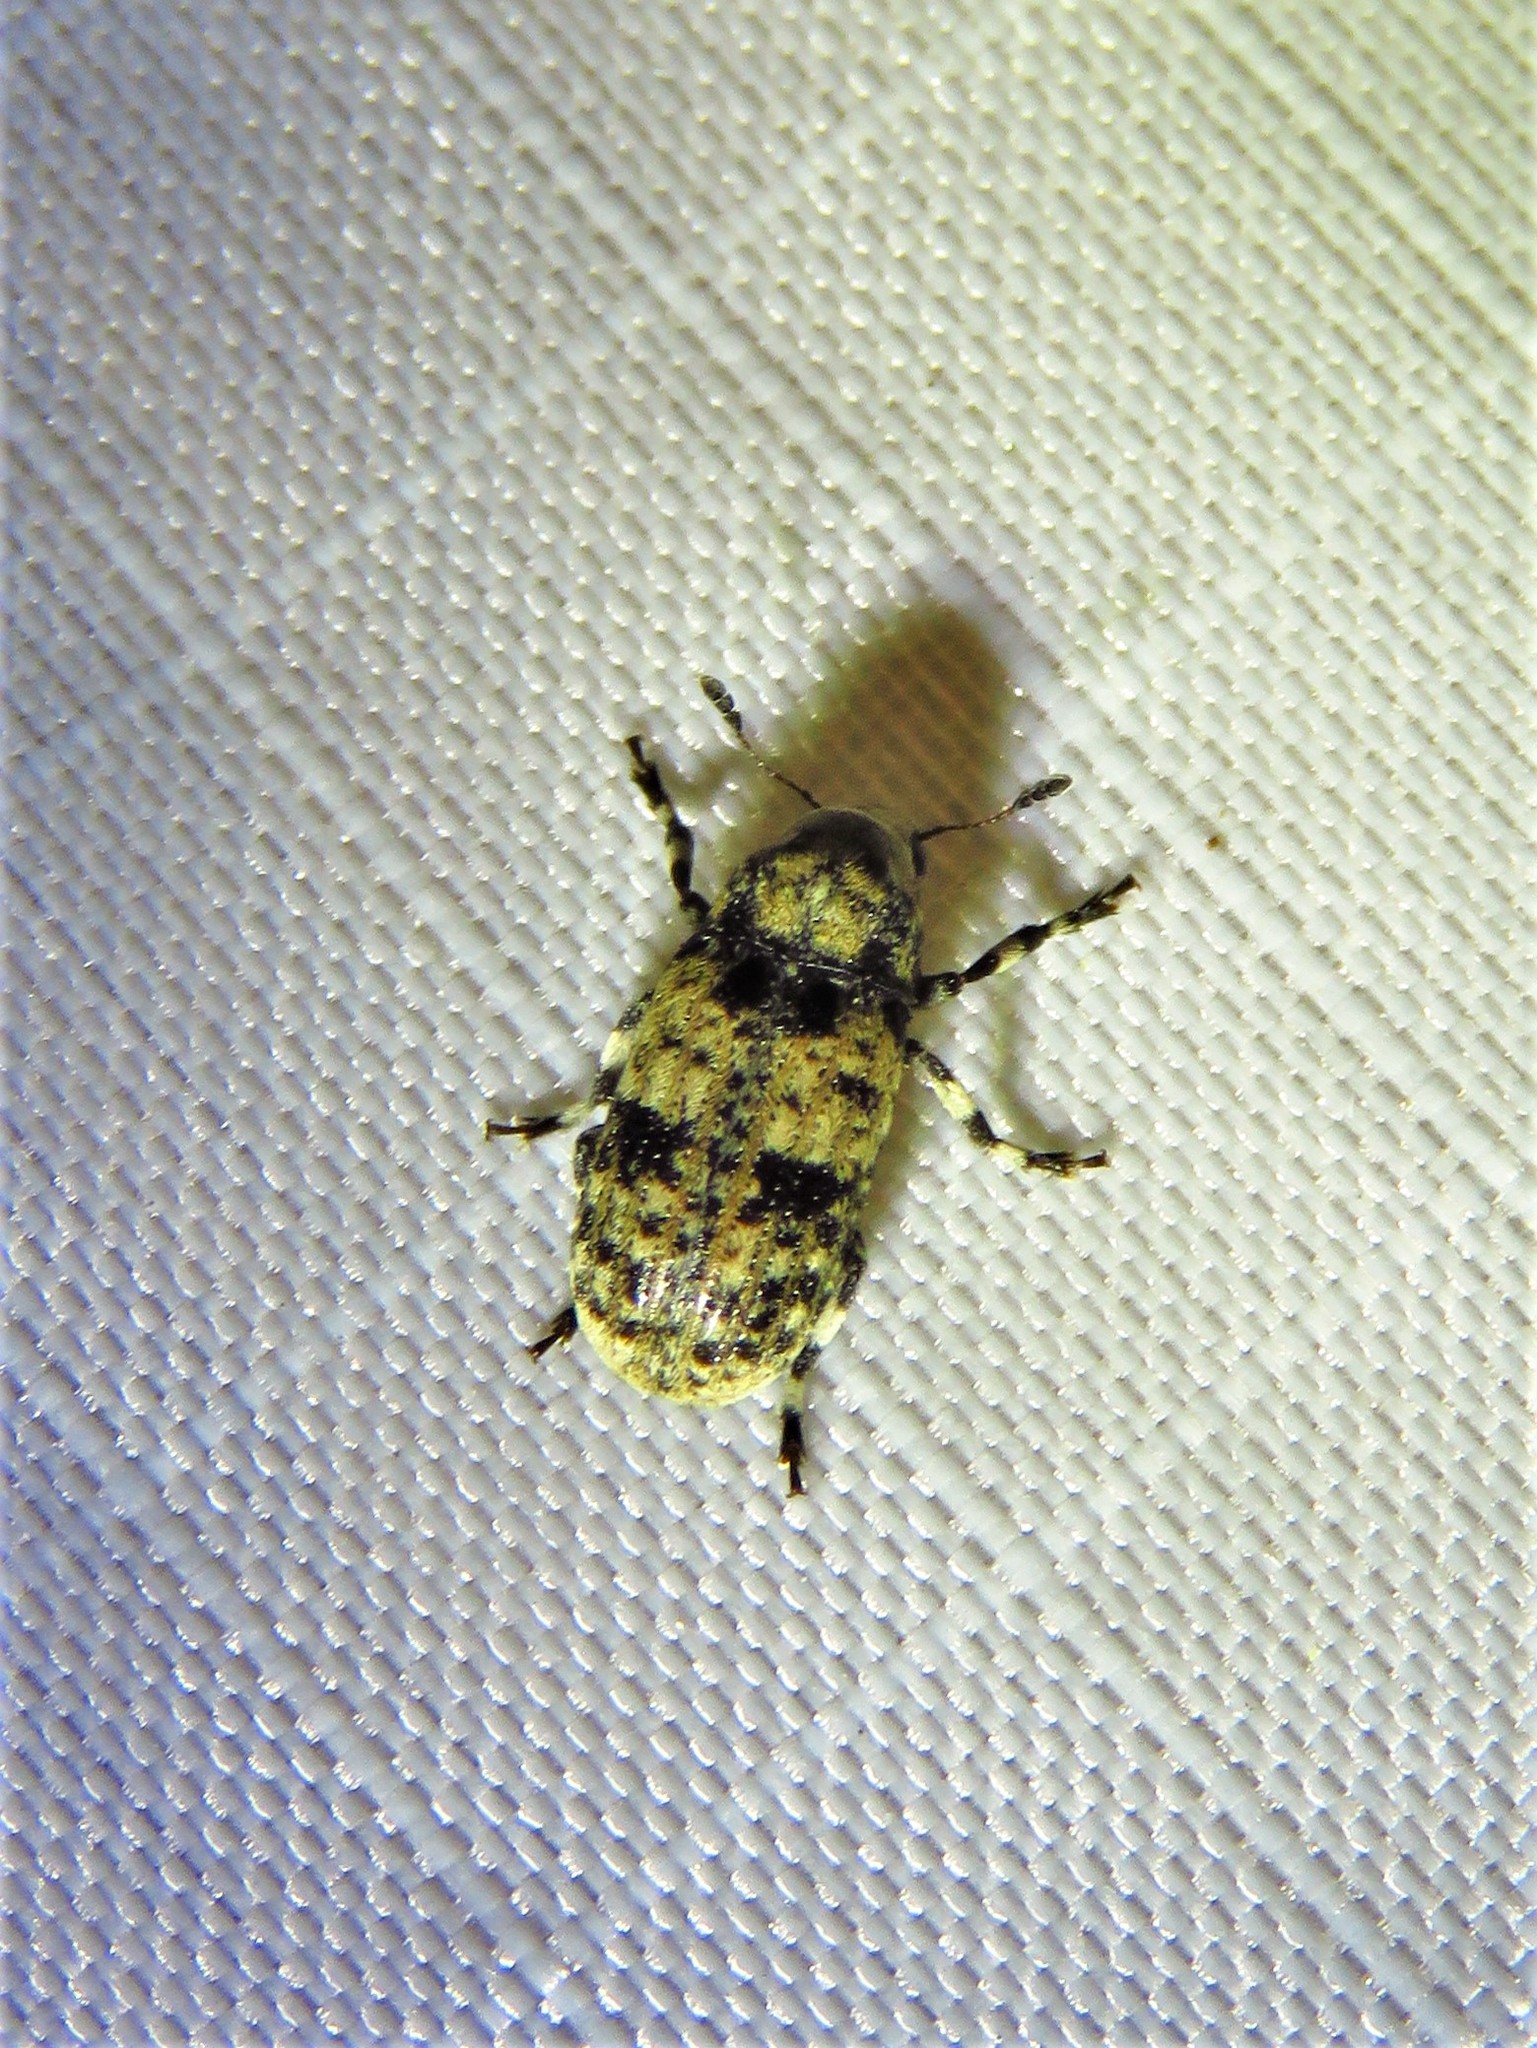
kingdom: Animalia
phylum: Arthropoda
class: Insecta
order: Coleoptera
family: Anthribidae
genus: Euparius
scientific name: Euparius marmoreus
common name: Marbled fungus weevil
